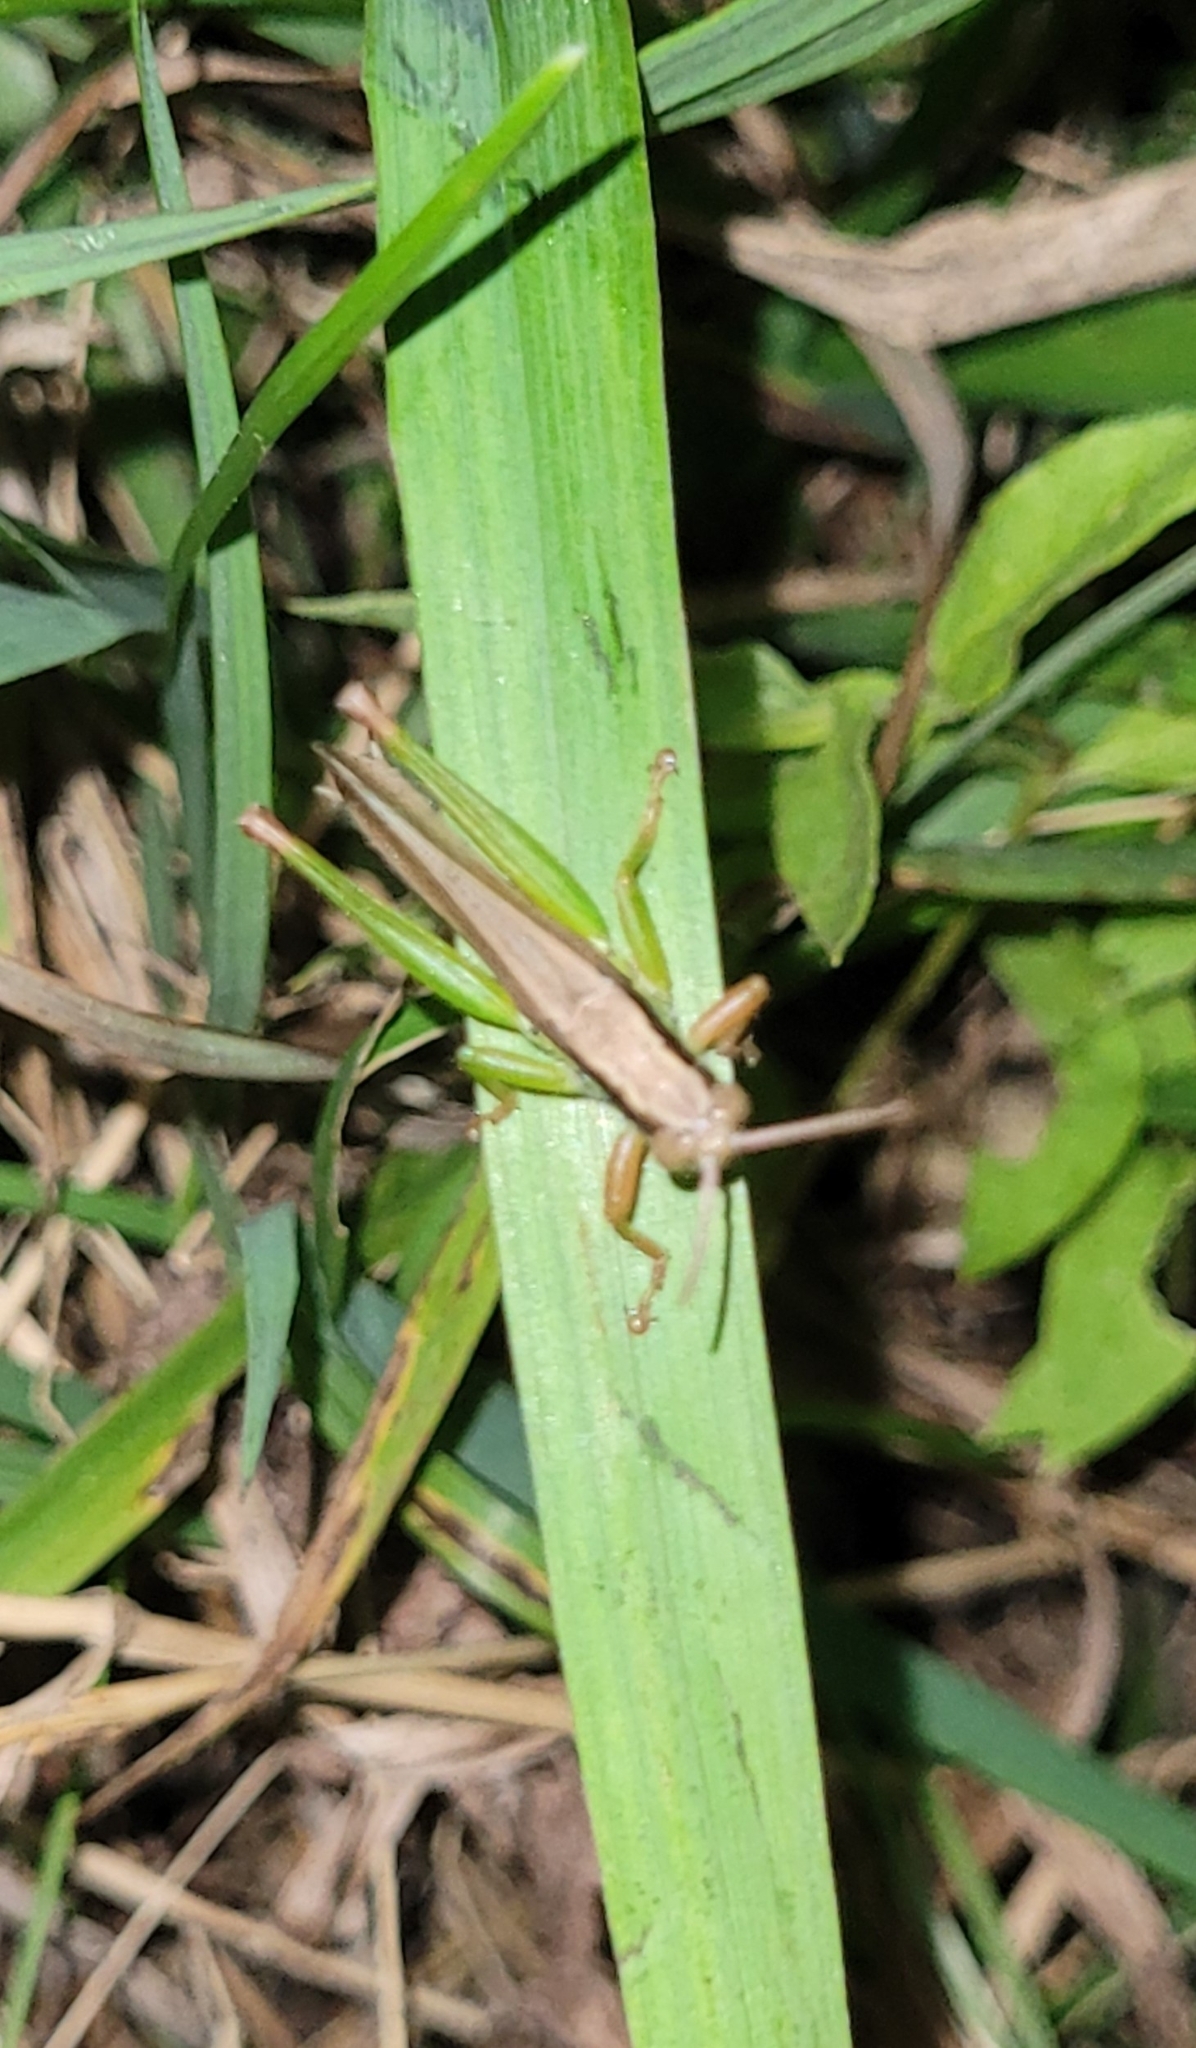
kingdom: Animalia
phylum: Arthropoda
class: Insecta
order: Orthoptera
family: Acrididae
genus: Oxya
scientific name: Oxya maritima
